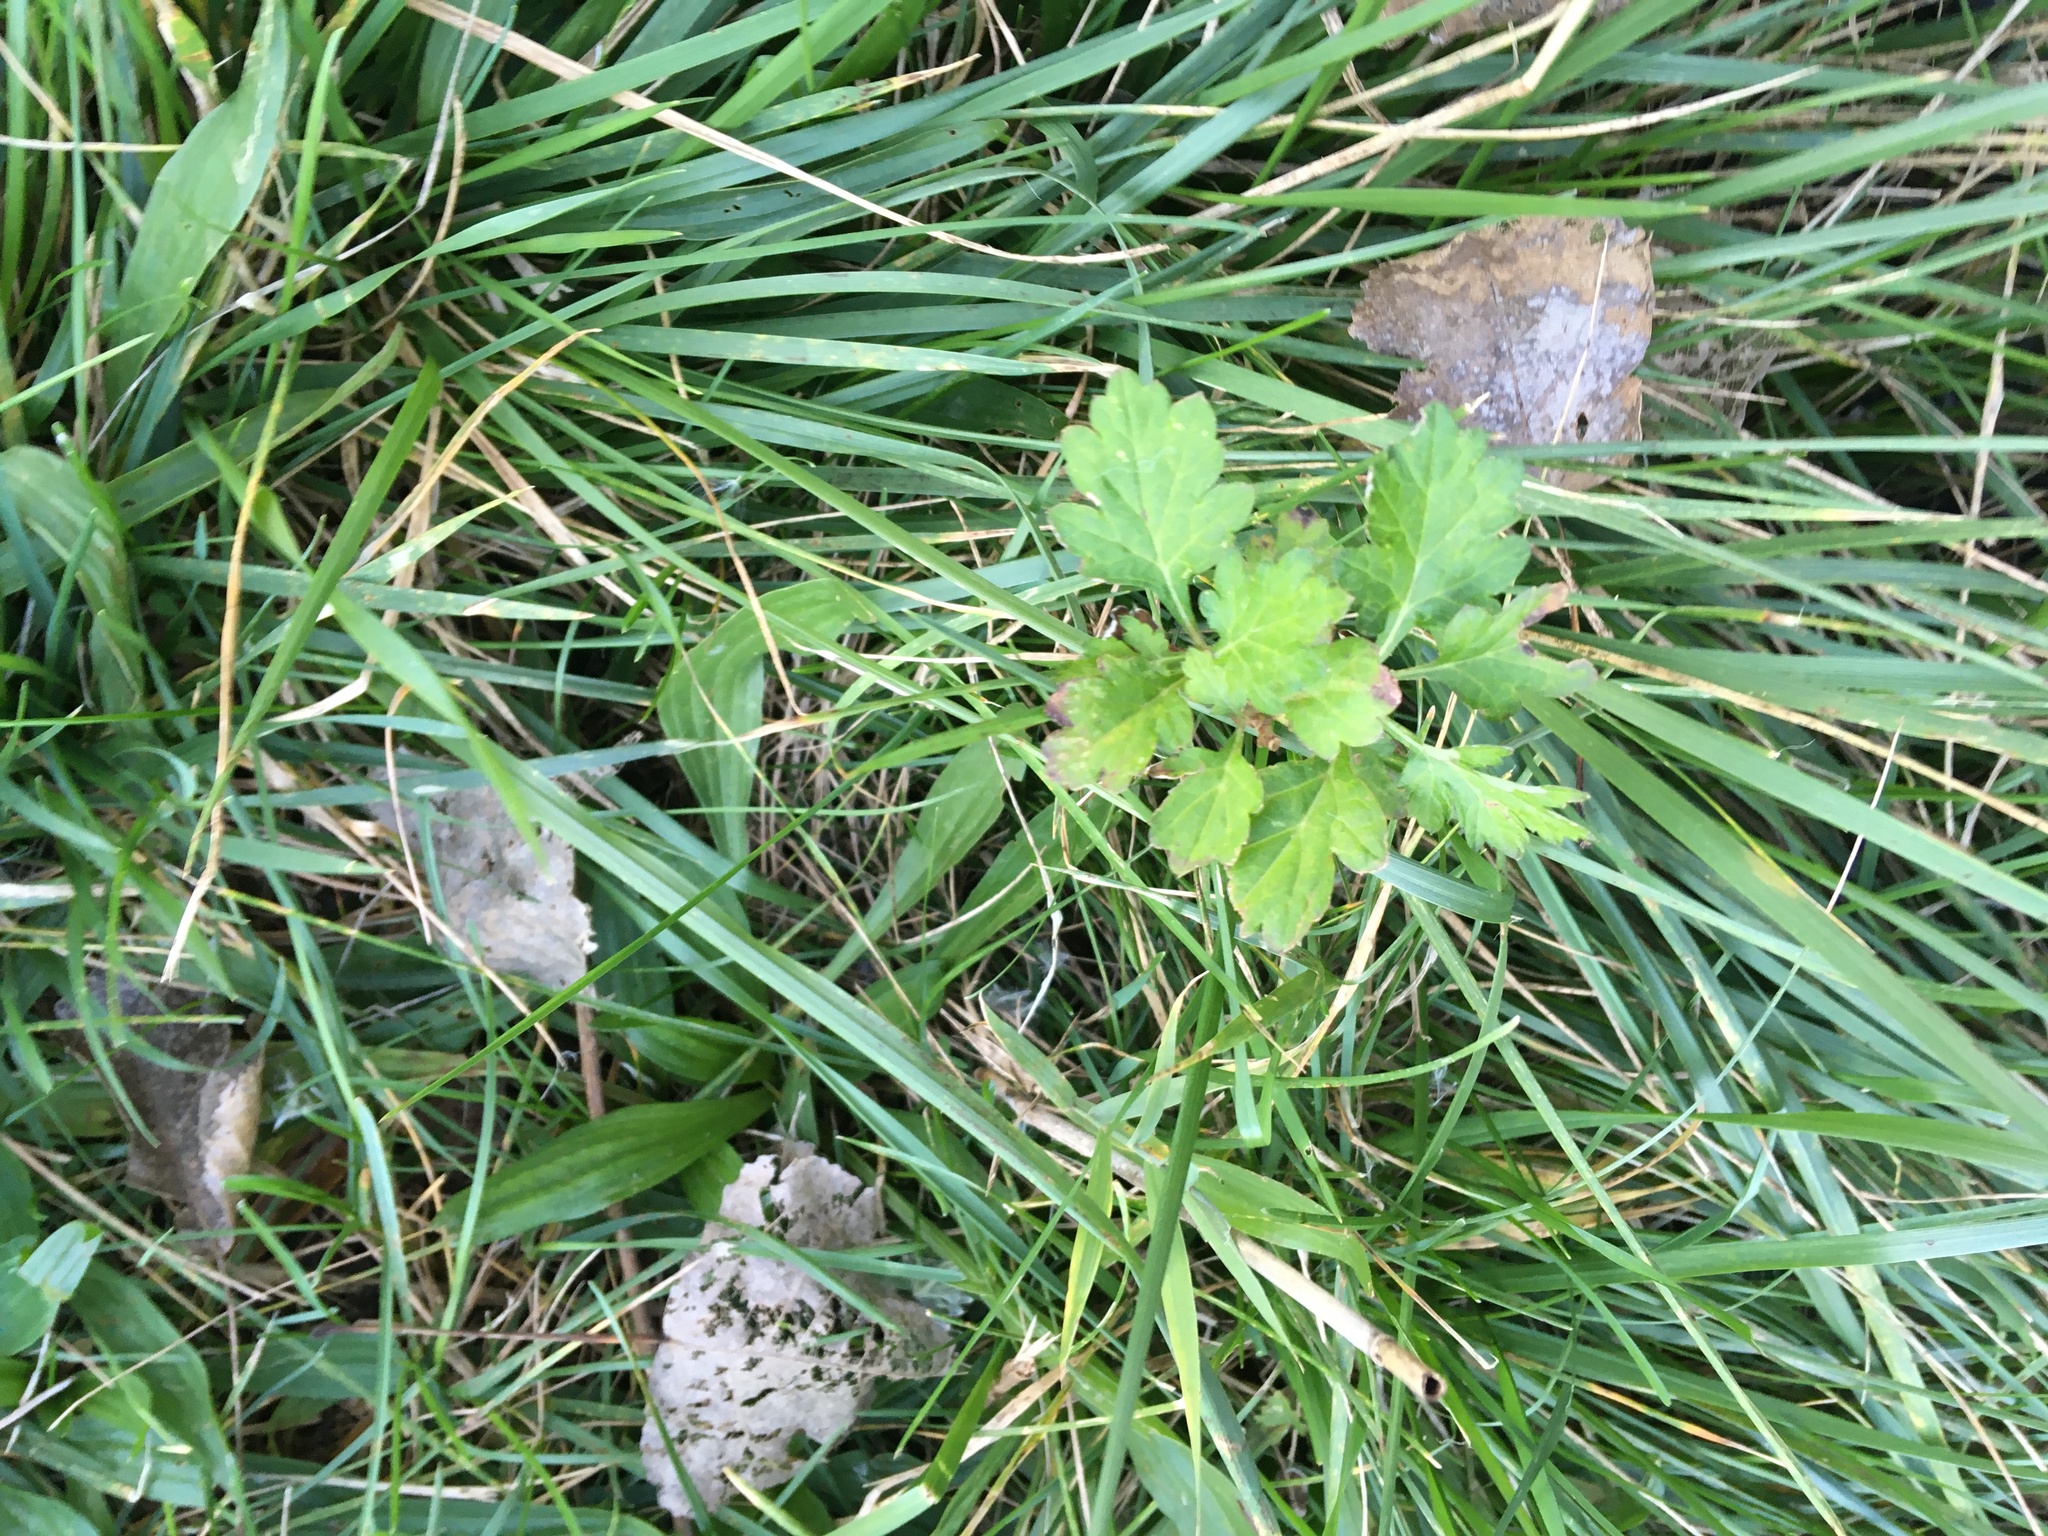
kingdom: Plantae
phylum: Tracheophyta
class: Magnoliopsida
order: Asterales
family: Asteraceae
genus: Artemisia
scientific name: Artemisia vulgaris
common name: Mugwort
